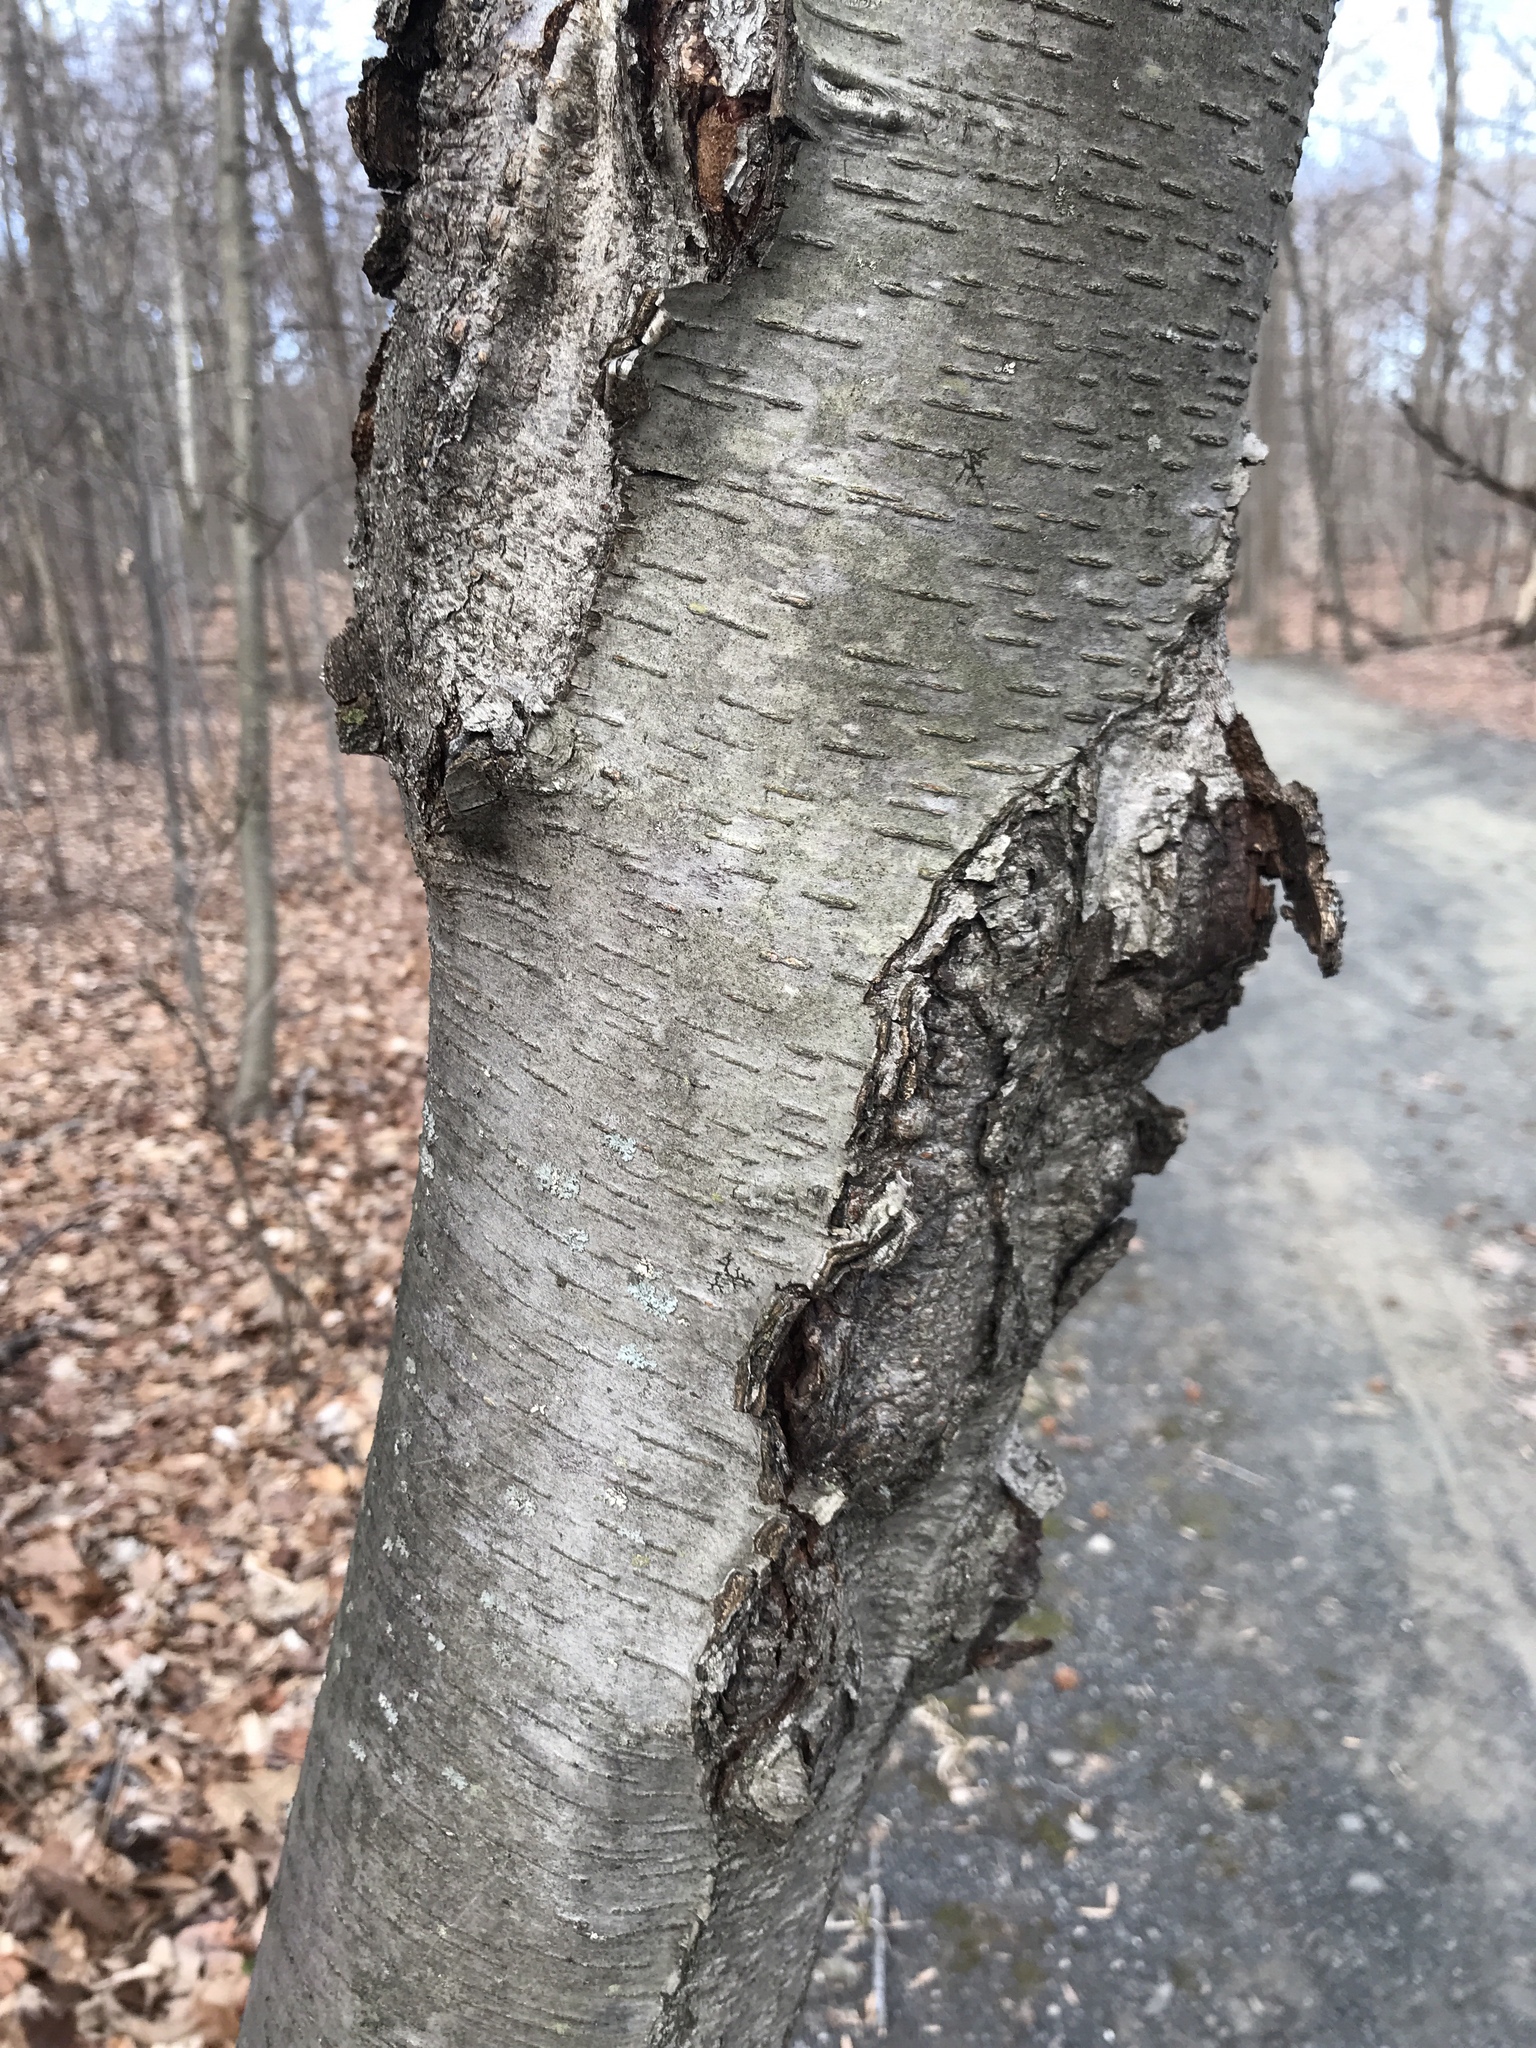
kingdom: Plantae
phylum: Tracheophyta
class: Magnoliopsida
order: Fagales
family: Betulaceae
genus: Betula
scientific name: Betula lenta
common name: Black birch
